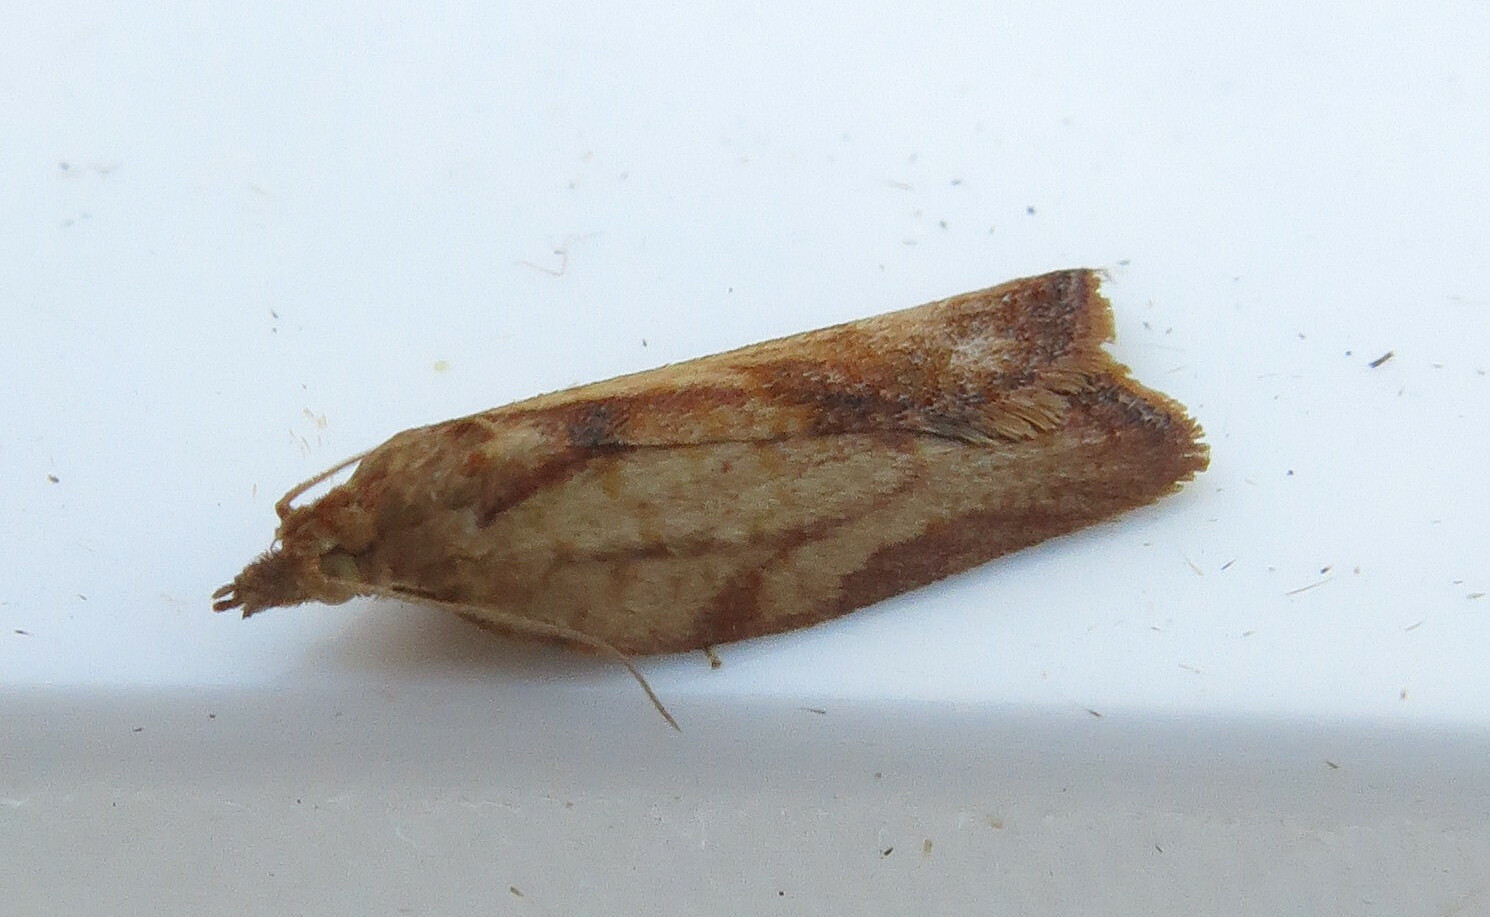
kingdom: Animalia
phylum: Arthropoda
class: Insecta
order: Lepidoptera
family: Tortricidae
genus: Epiphyas
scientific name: Epiphyas postvittana
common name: Light brown apple moth
